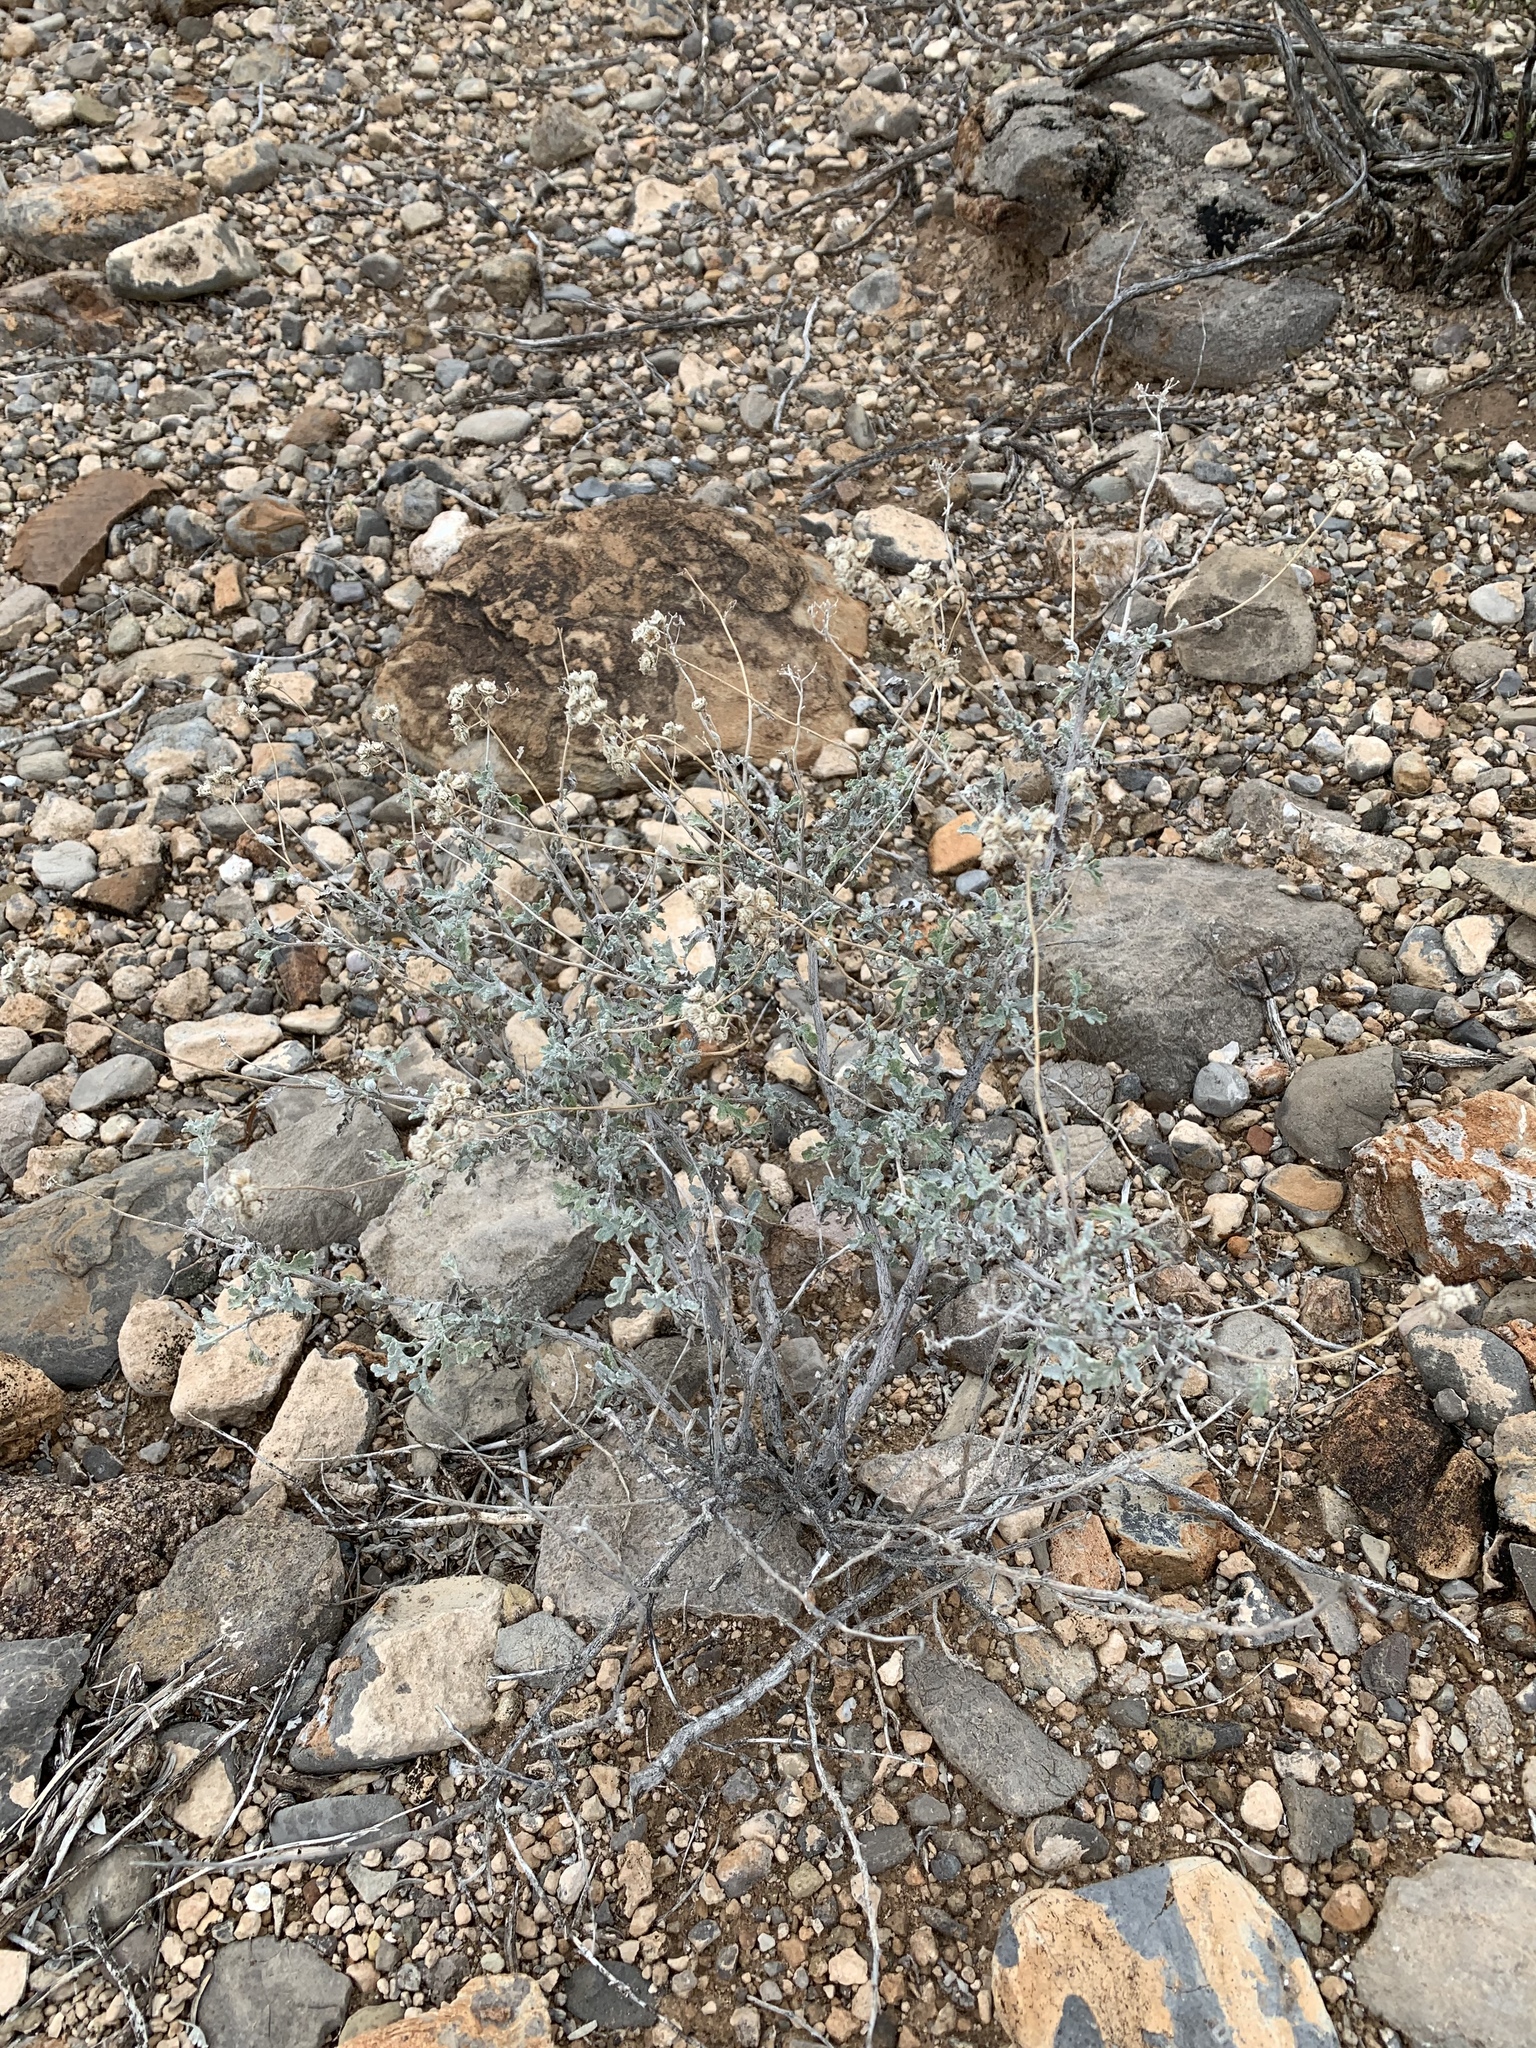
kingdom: Plantae
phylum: Tracheophyta
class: Magnoliopsida
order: Asterales
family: Asteraceae
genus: Parthenium
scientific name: Parthenium incanum
